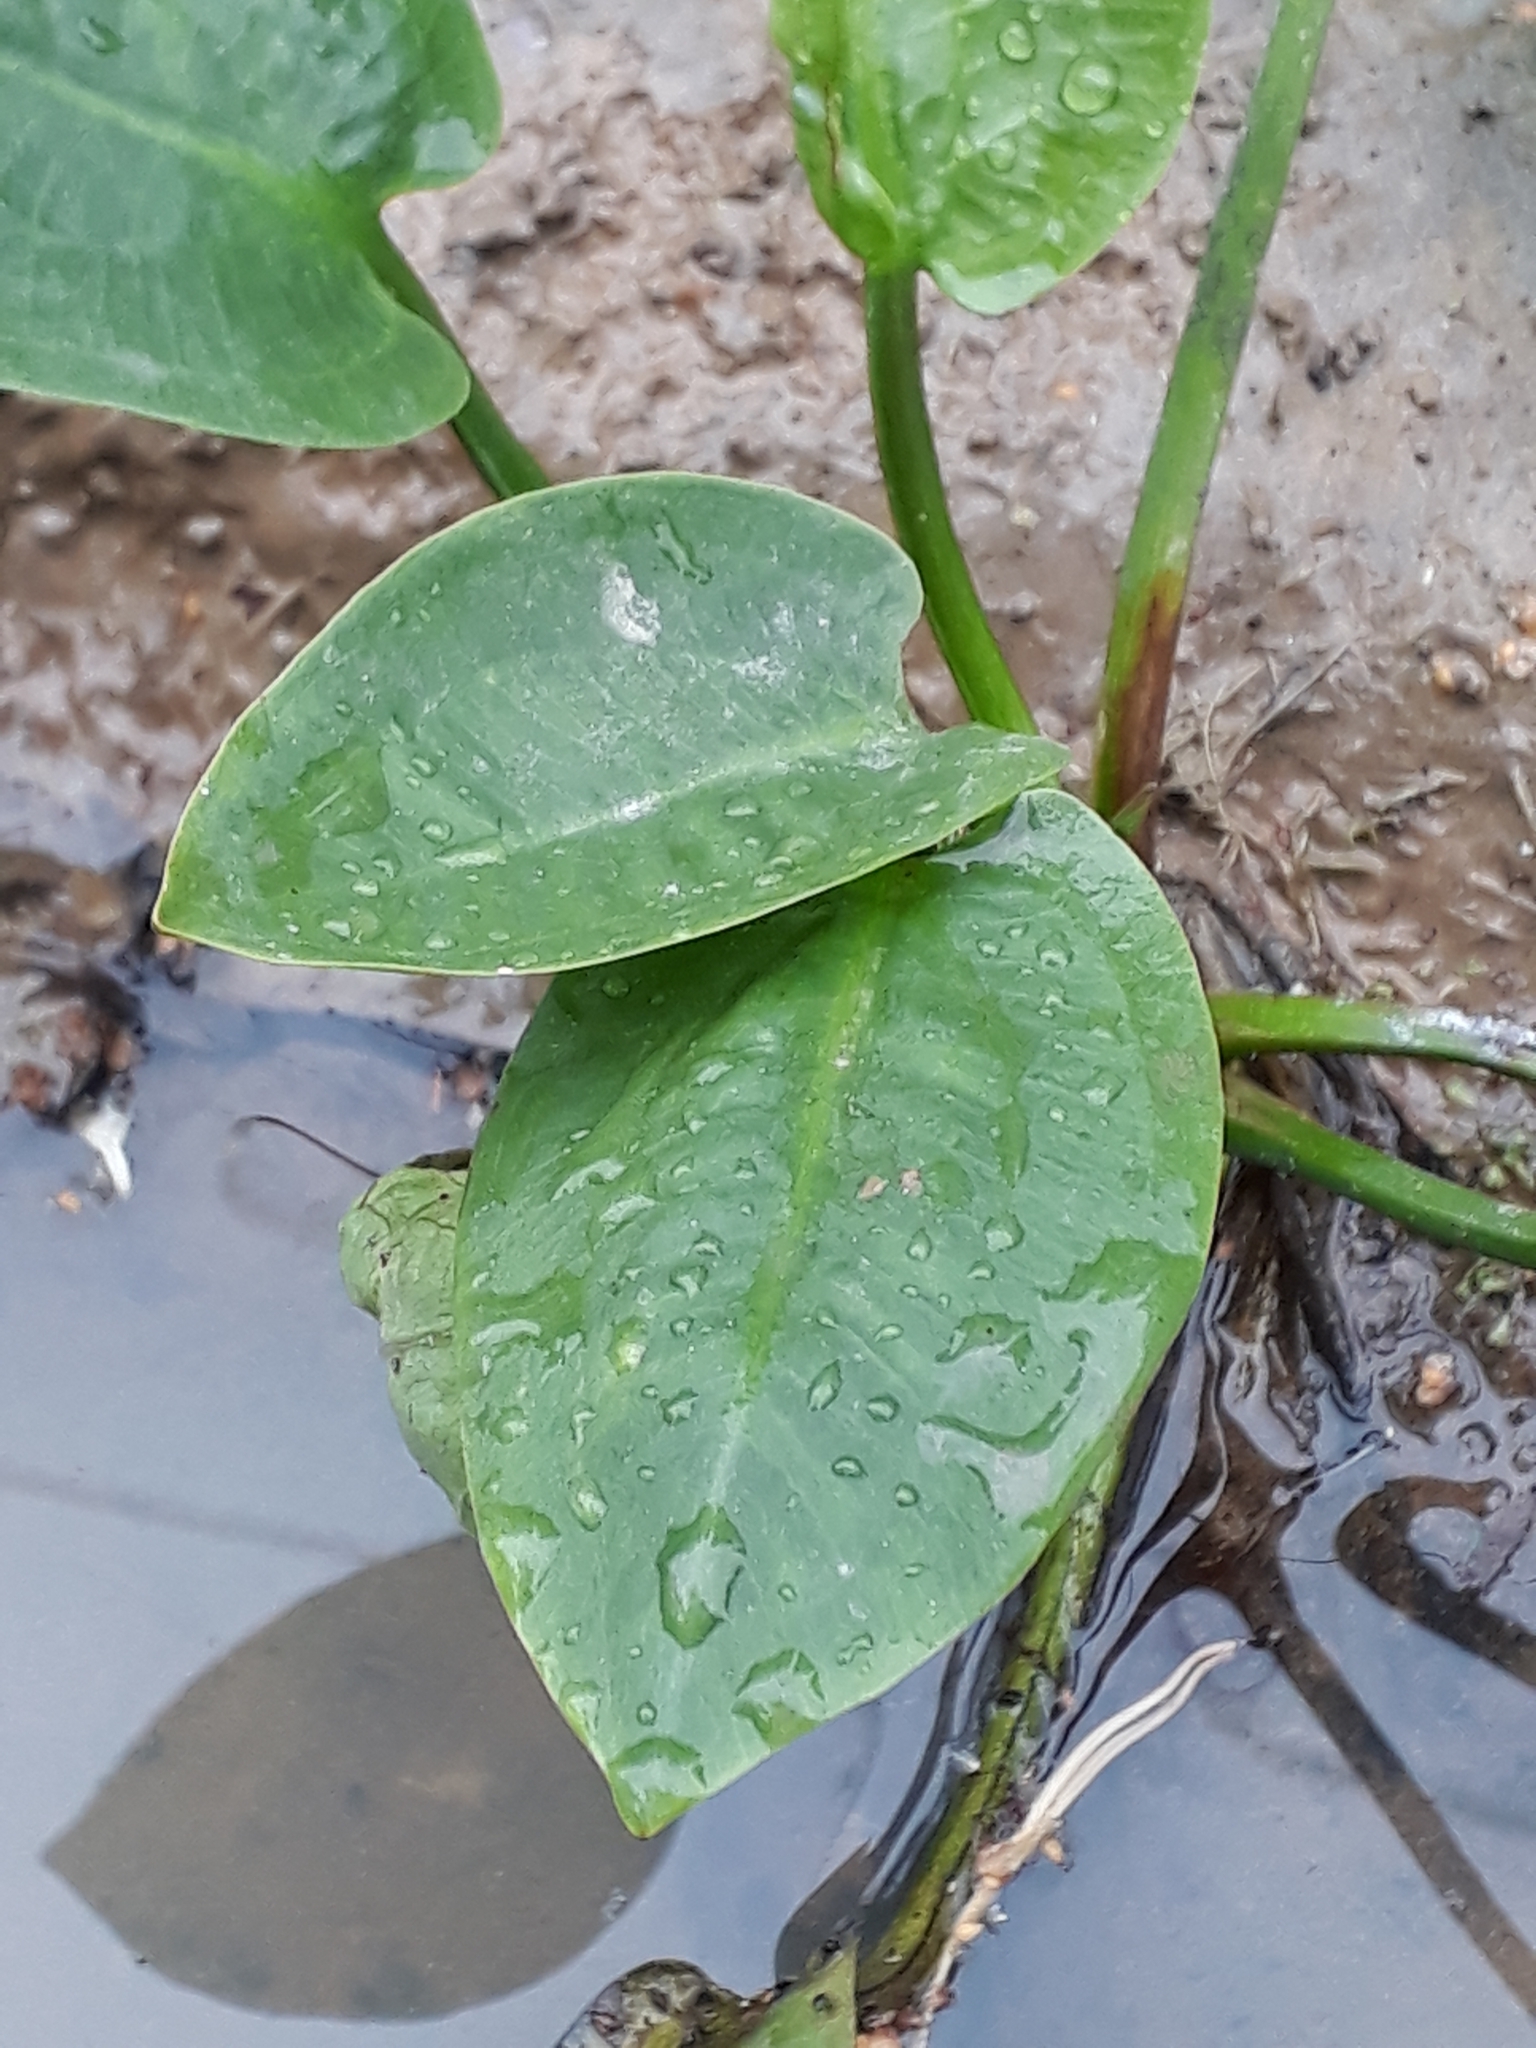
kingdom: Plantae
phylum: Tracheophyta
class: Liliopsida
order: Alismatales
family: Alismataceae
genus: Alisma
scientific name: Alisma plantago-aquatica
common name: Water-plantain
